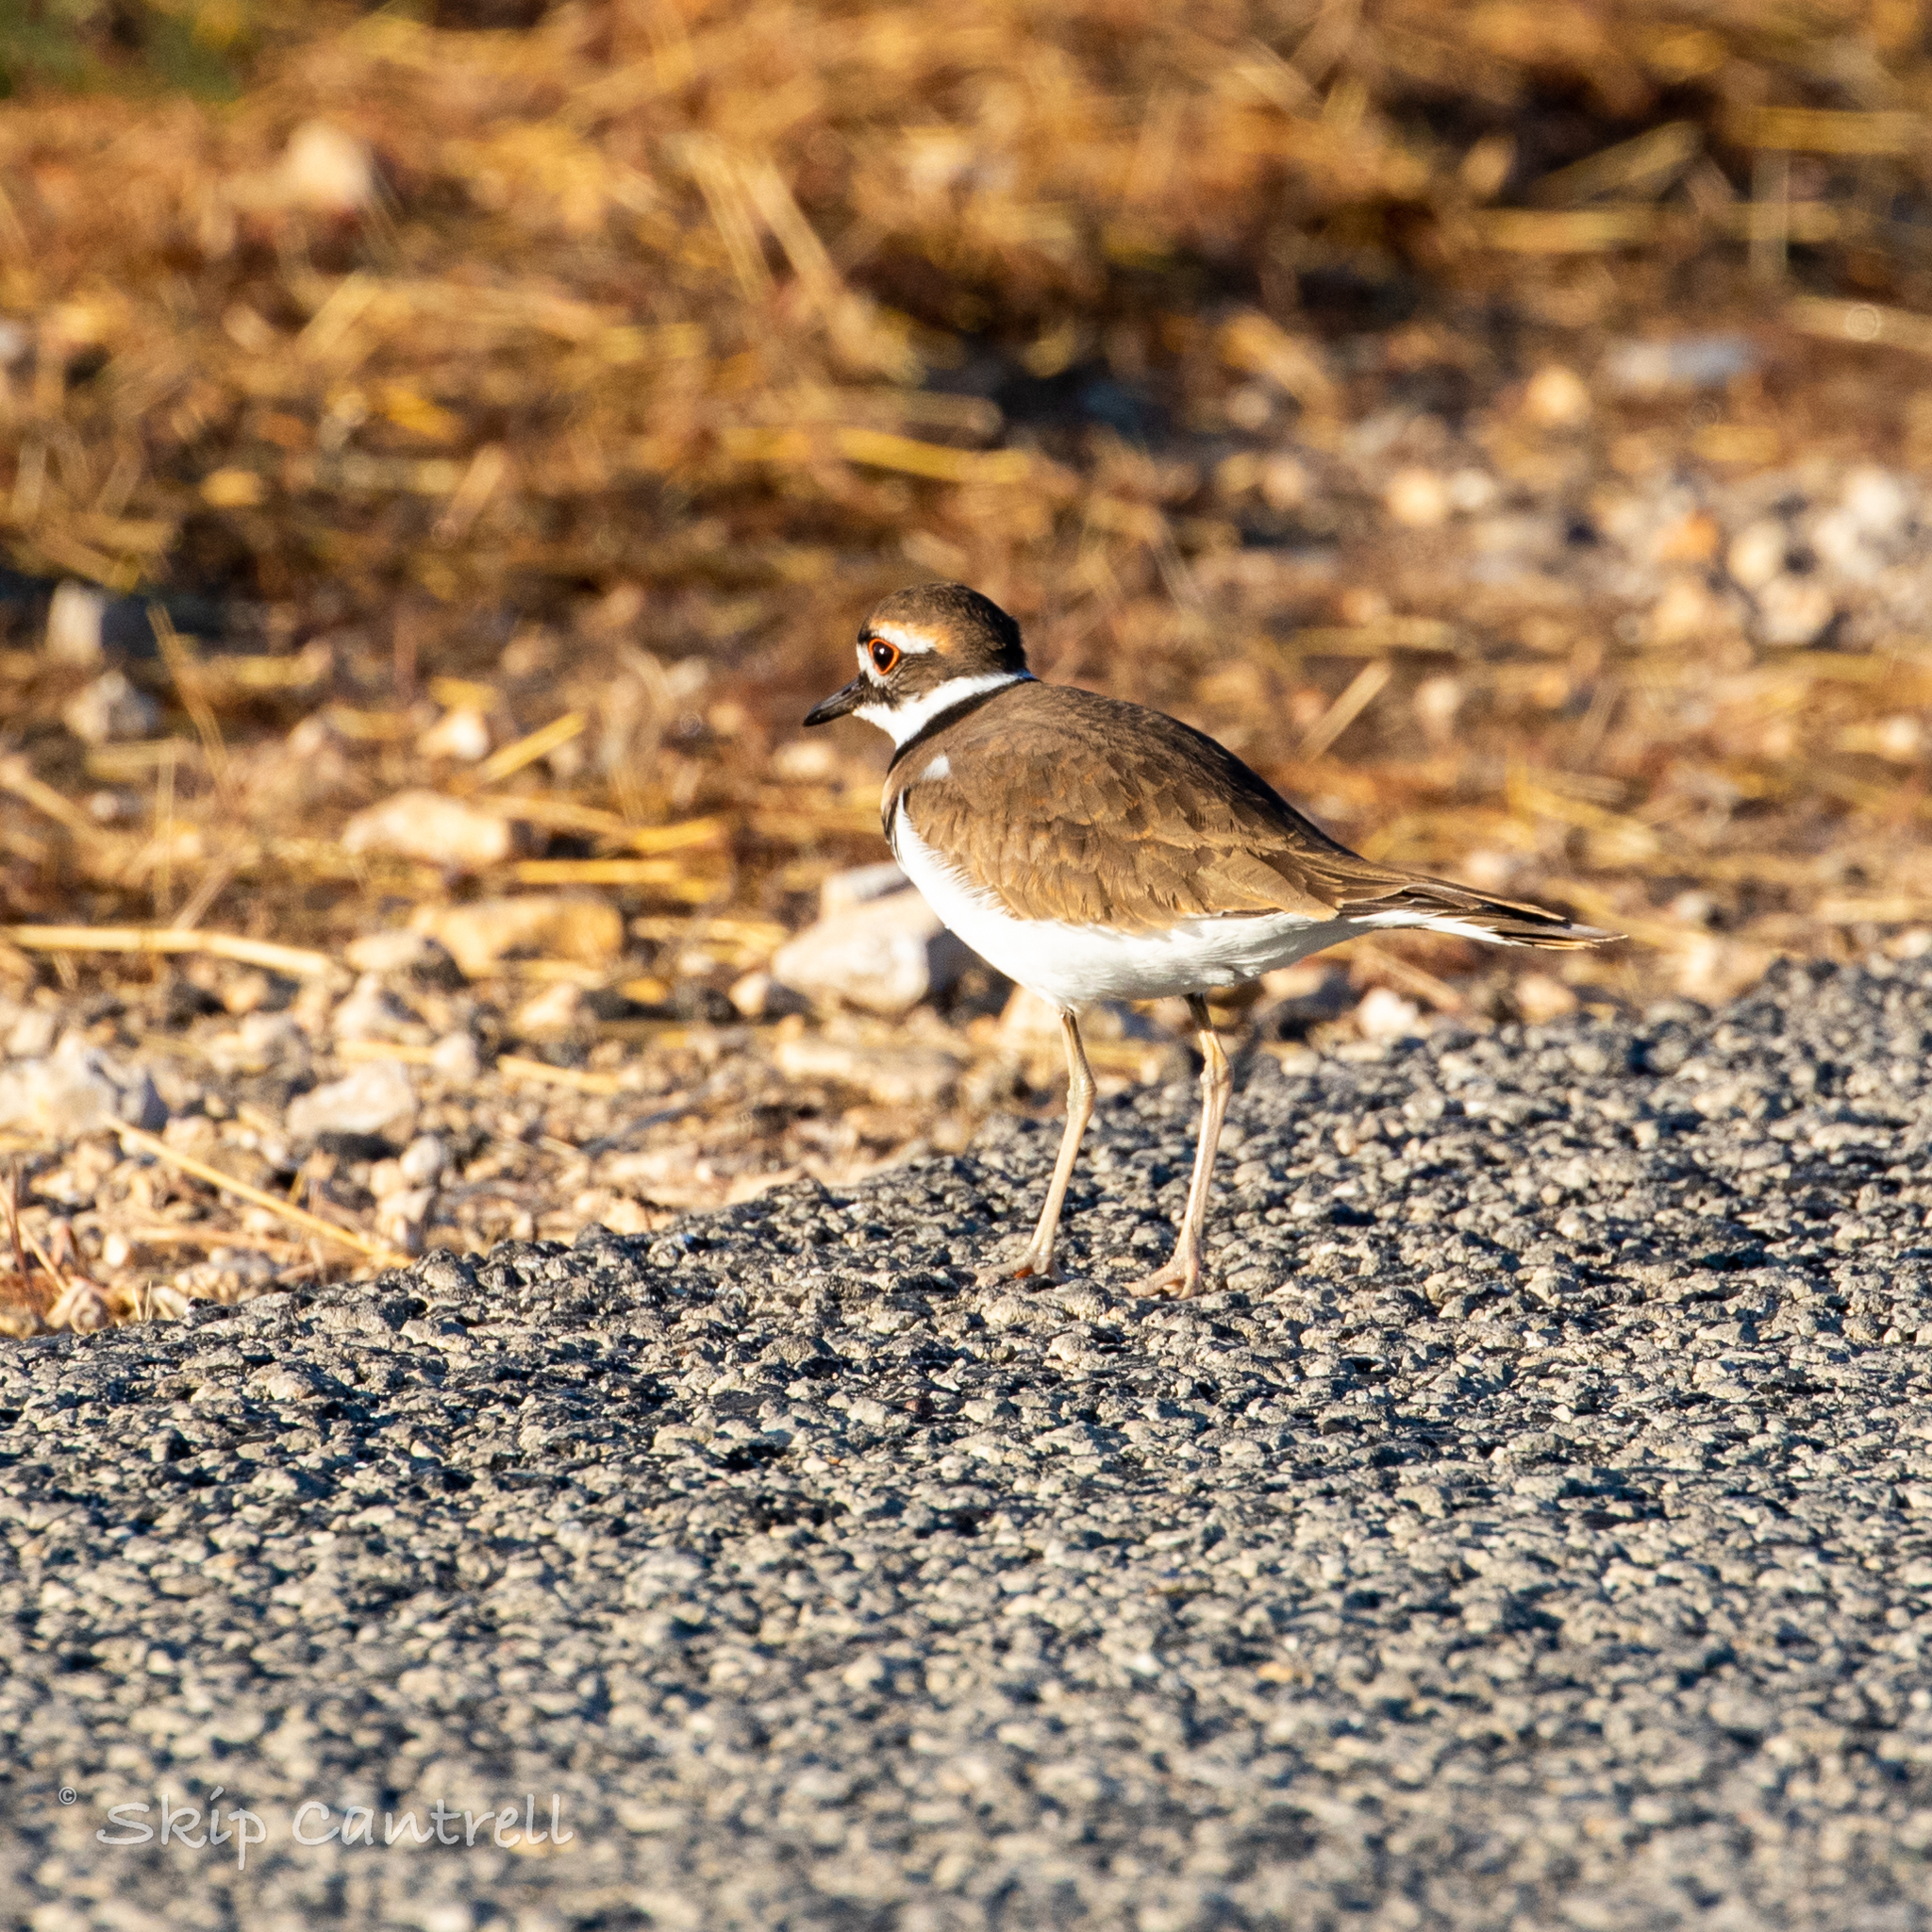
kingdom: Animalia
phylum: Chordata
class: Aves
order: Charadriiformes
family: Charadriidae
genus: Charadrius
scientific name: Charadrius vociferus
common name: Killdeer
